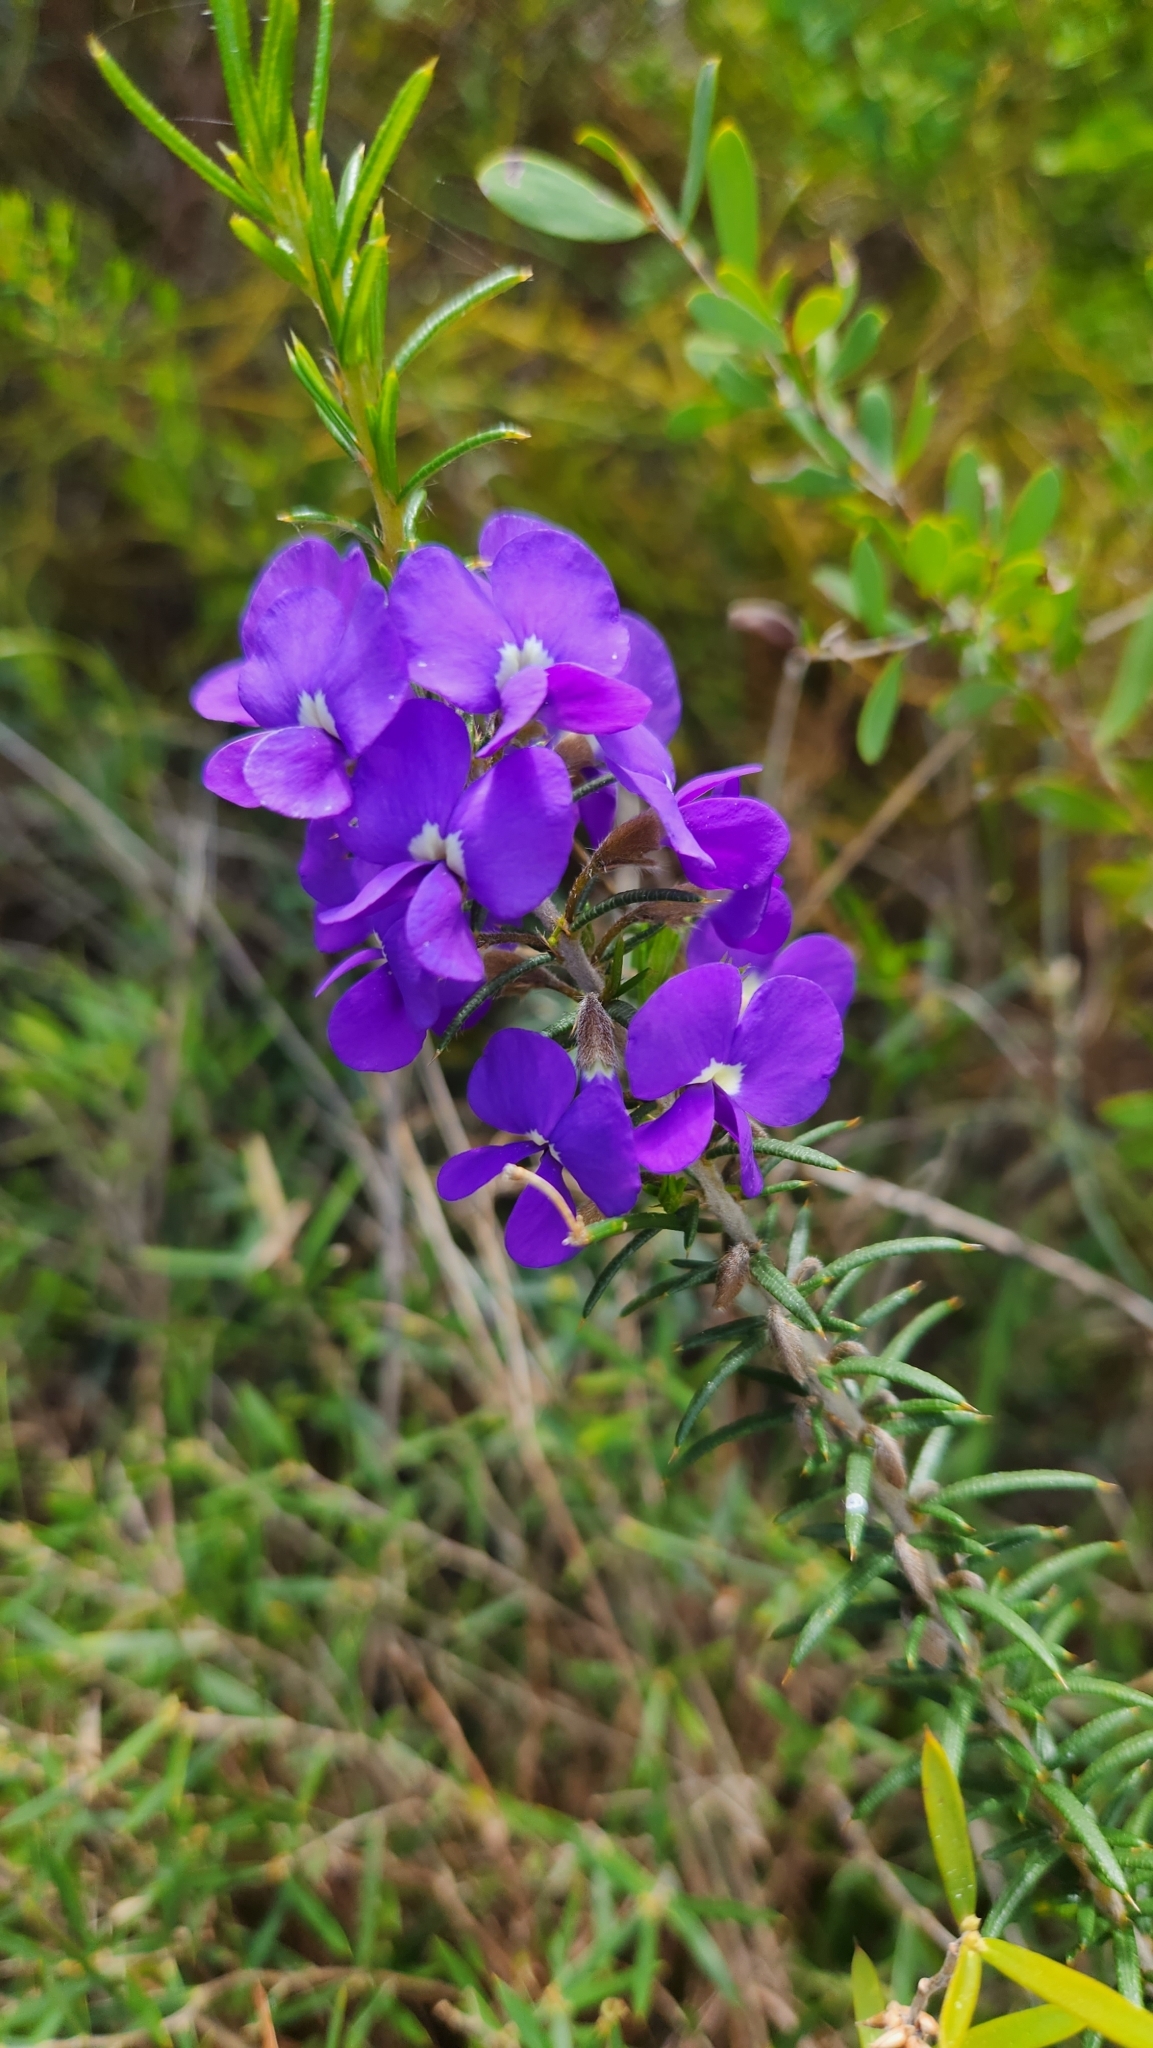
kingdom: Plantae
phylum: Tracheophyta
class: Magnoliopsida
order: Fabales
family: Fabaceae
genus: Hovea
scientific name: Hovea pungens
